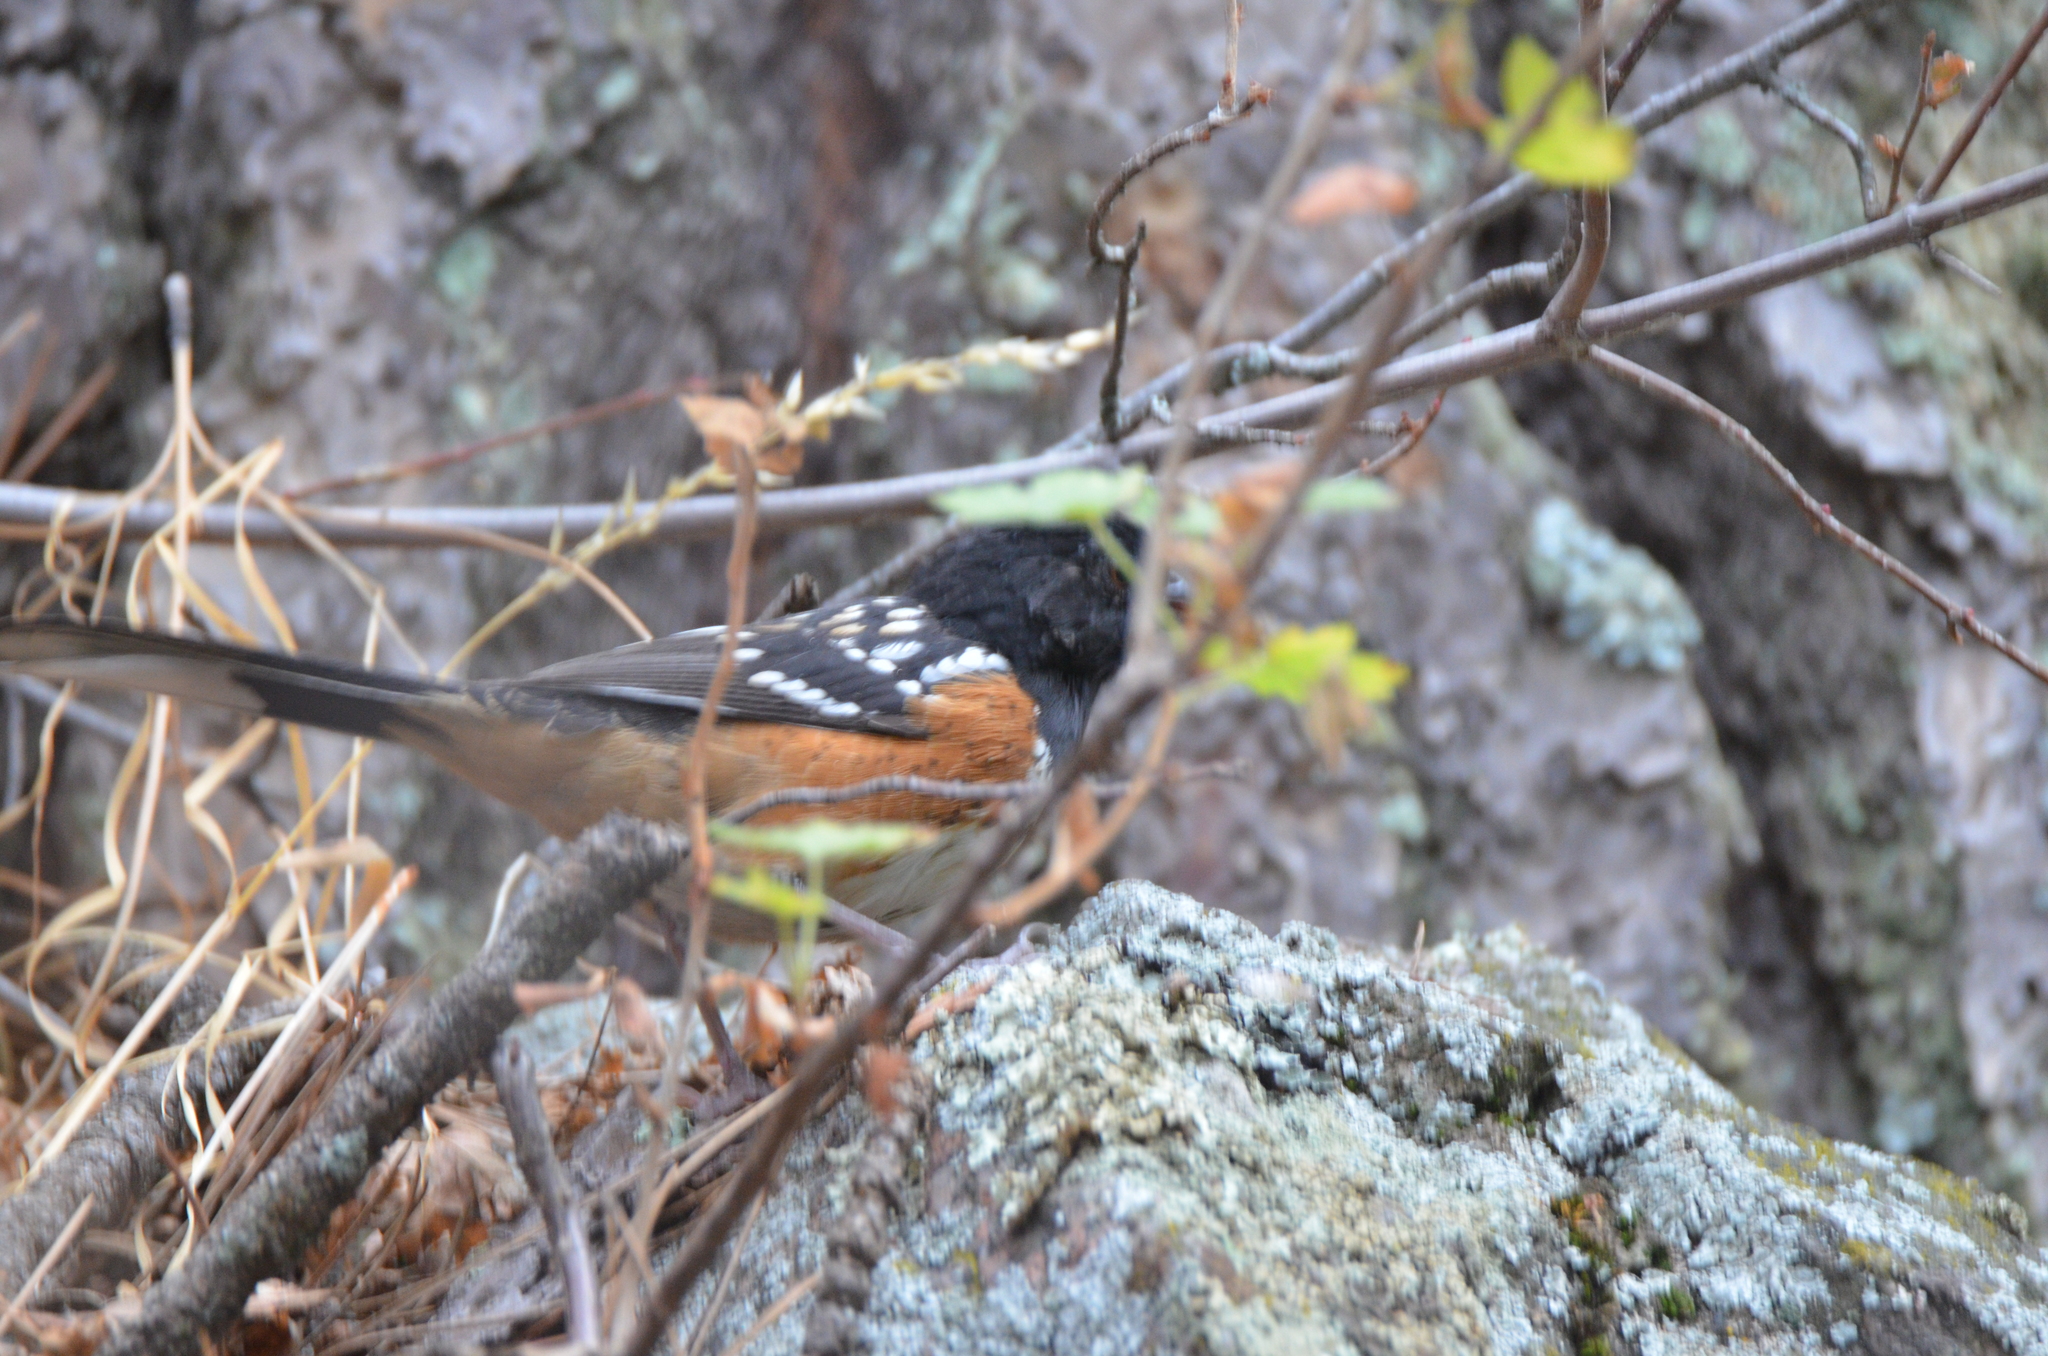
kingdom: Animalia
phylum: Chordata
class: Aves
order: Passeriformes
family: Passerellidae
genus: Pipilo
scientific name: Pipilo maculatus
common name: Spotted towhee
